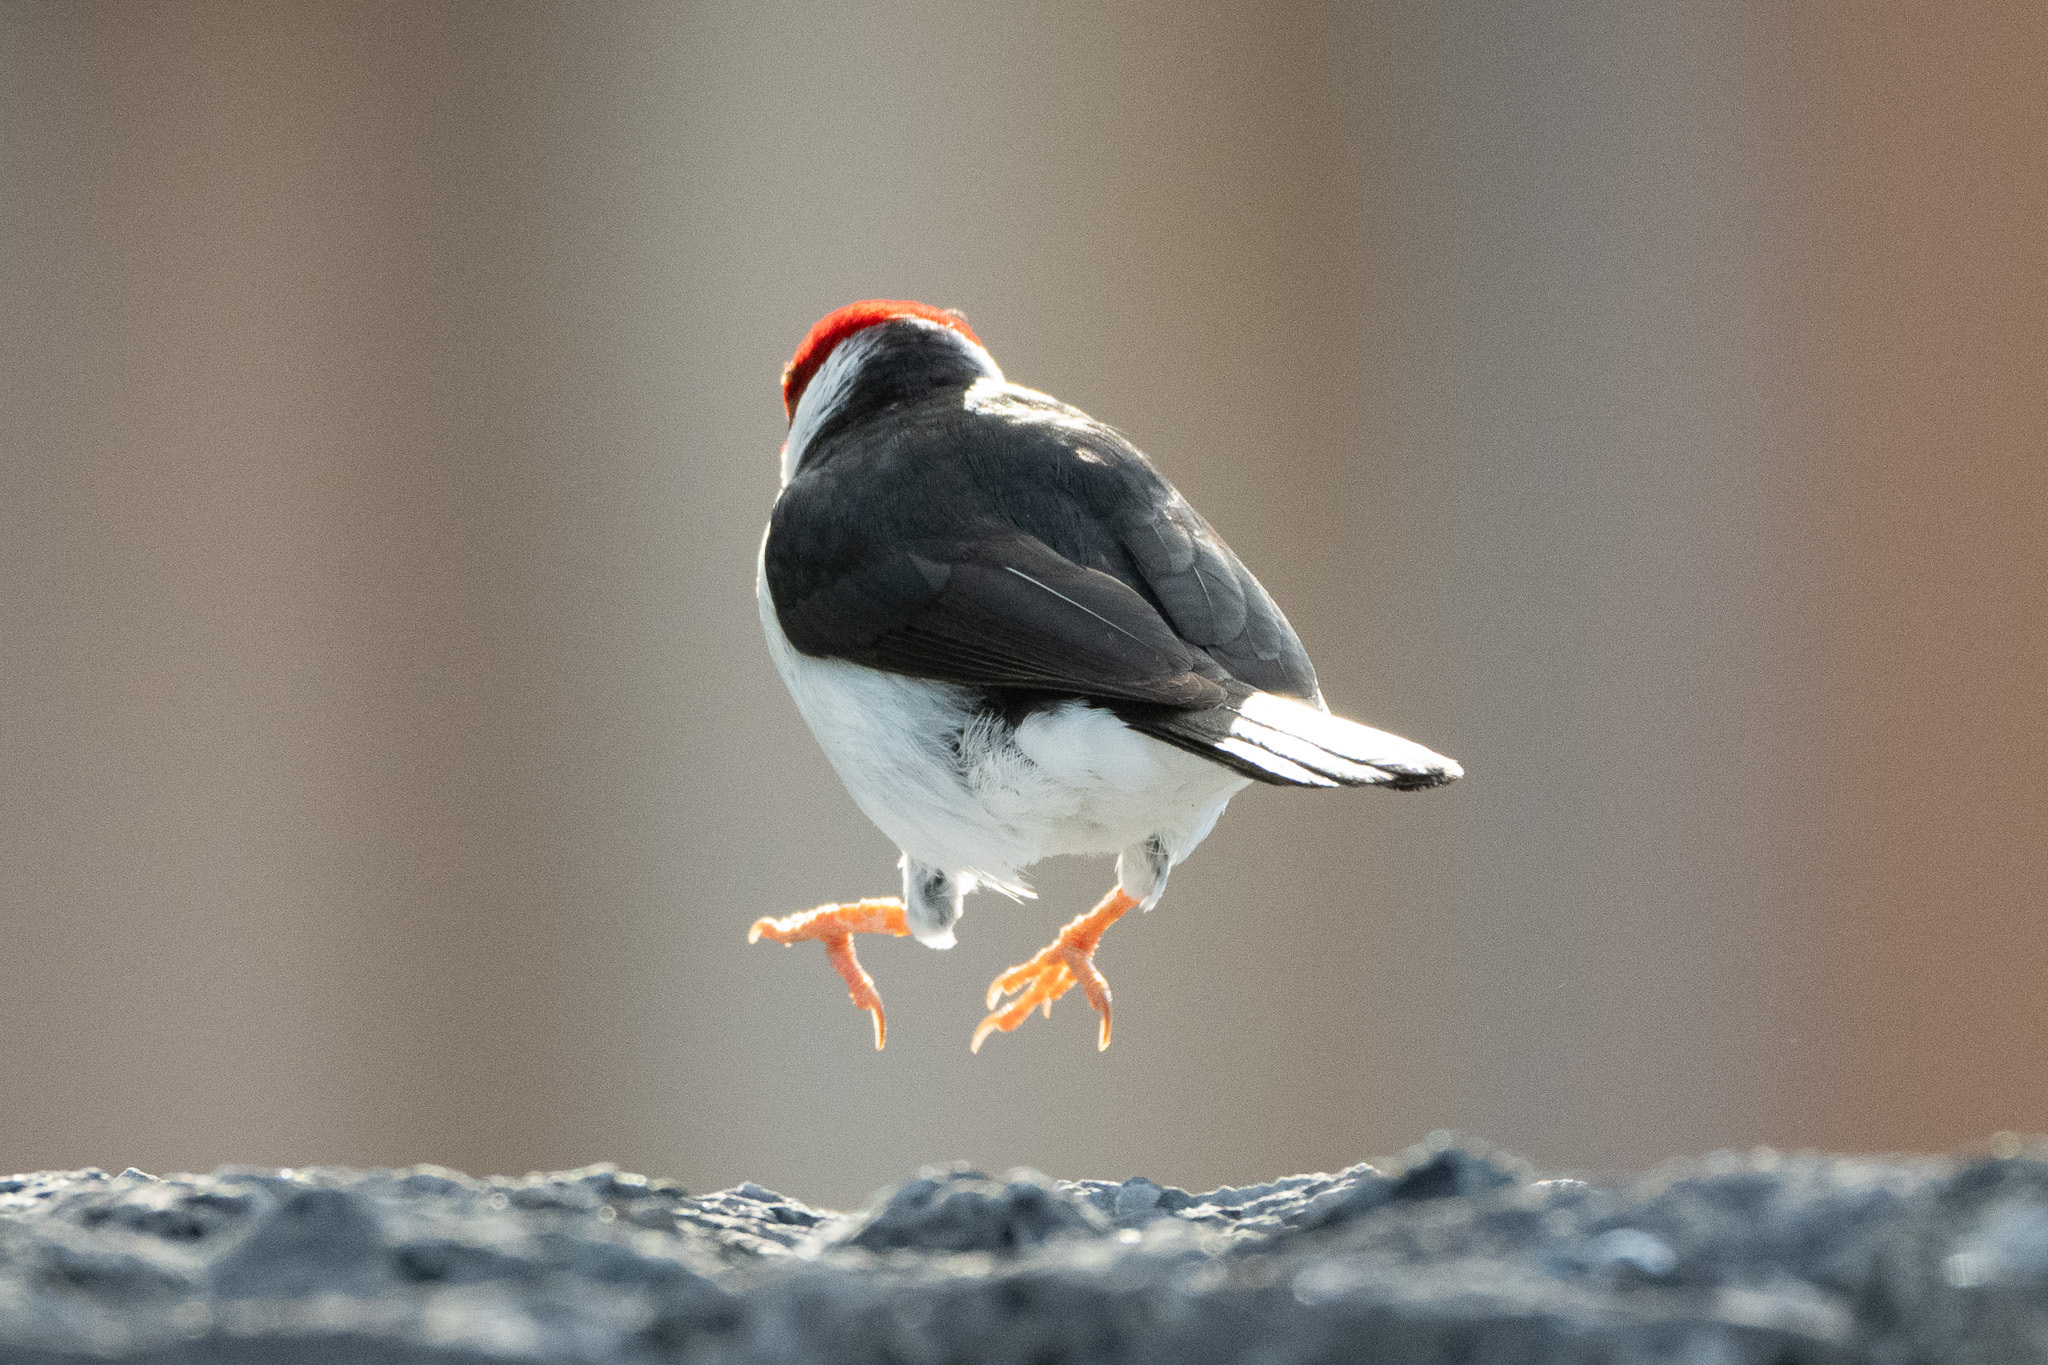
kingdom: Animalia
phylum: Chordata
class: Aves
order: Passeriformes
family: Thraupidae
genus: Paroaria
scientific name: Paroaria capitata
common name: Yellow-billed cardinal
